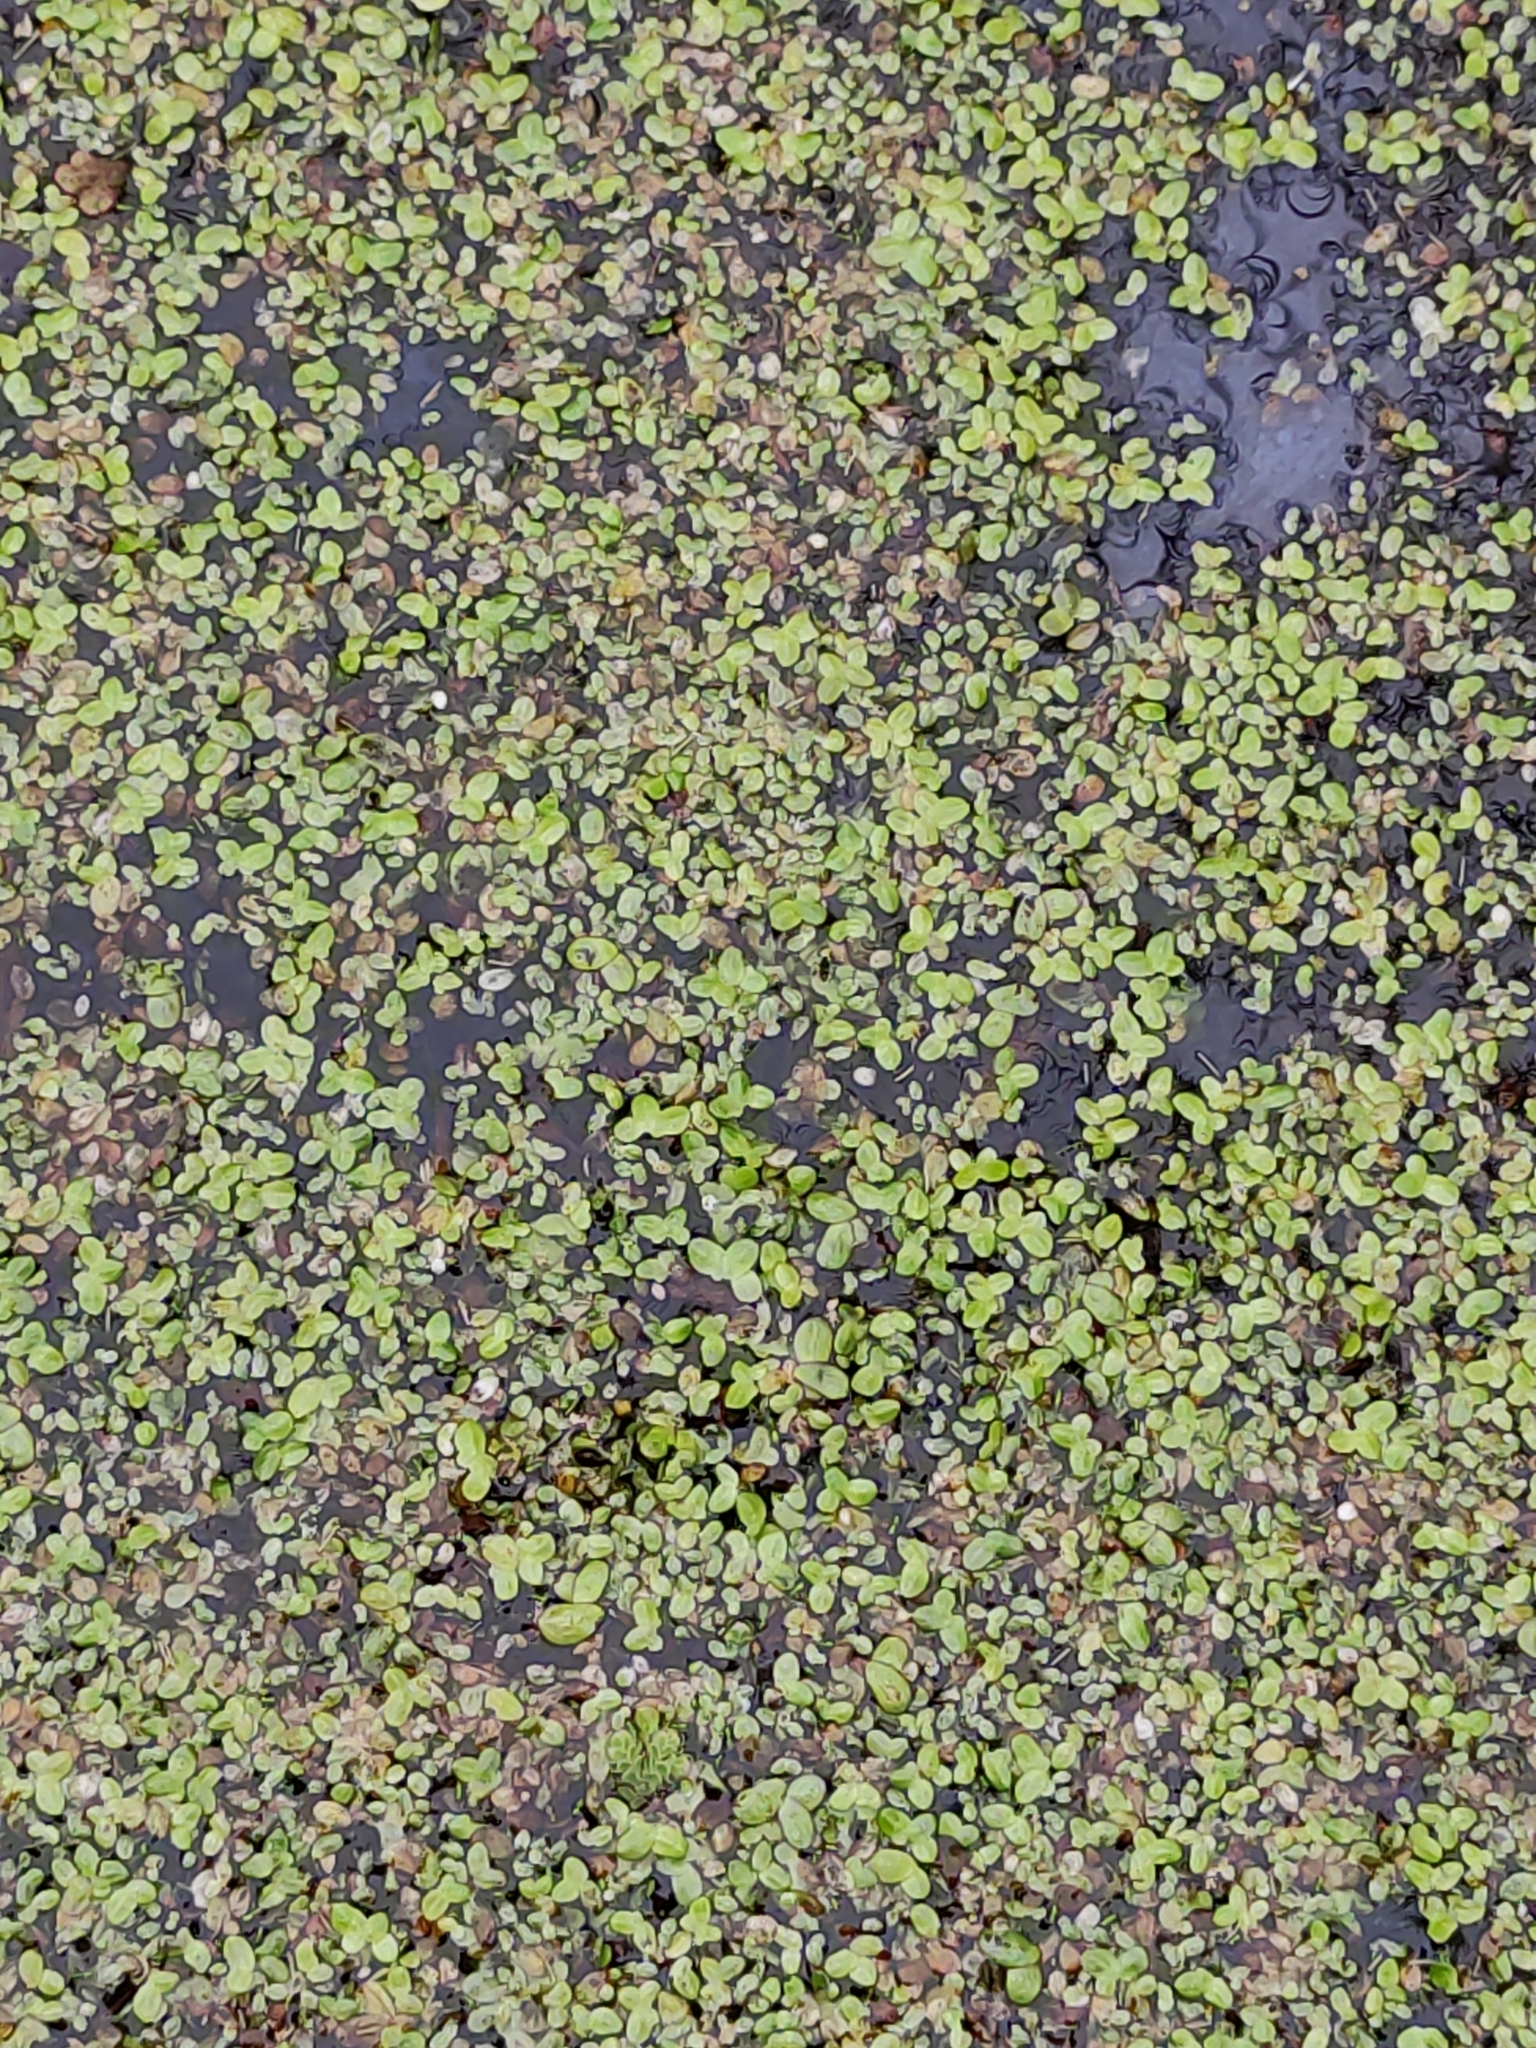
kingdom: Plantae
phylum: Tracheophyta
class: Polypodiopsida
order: Salviniales
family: Salviniaceae
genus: Azolla
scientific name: Azolla rubra
